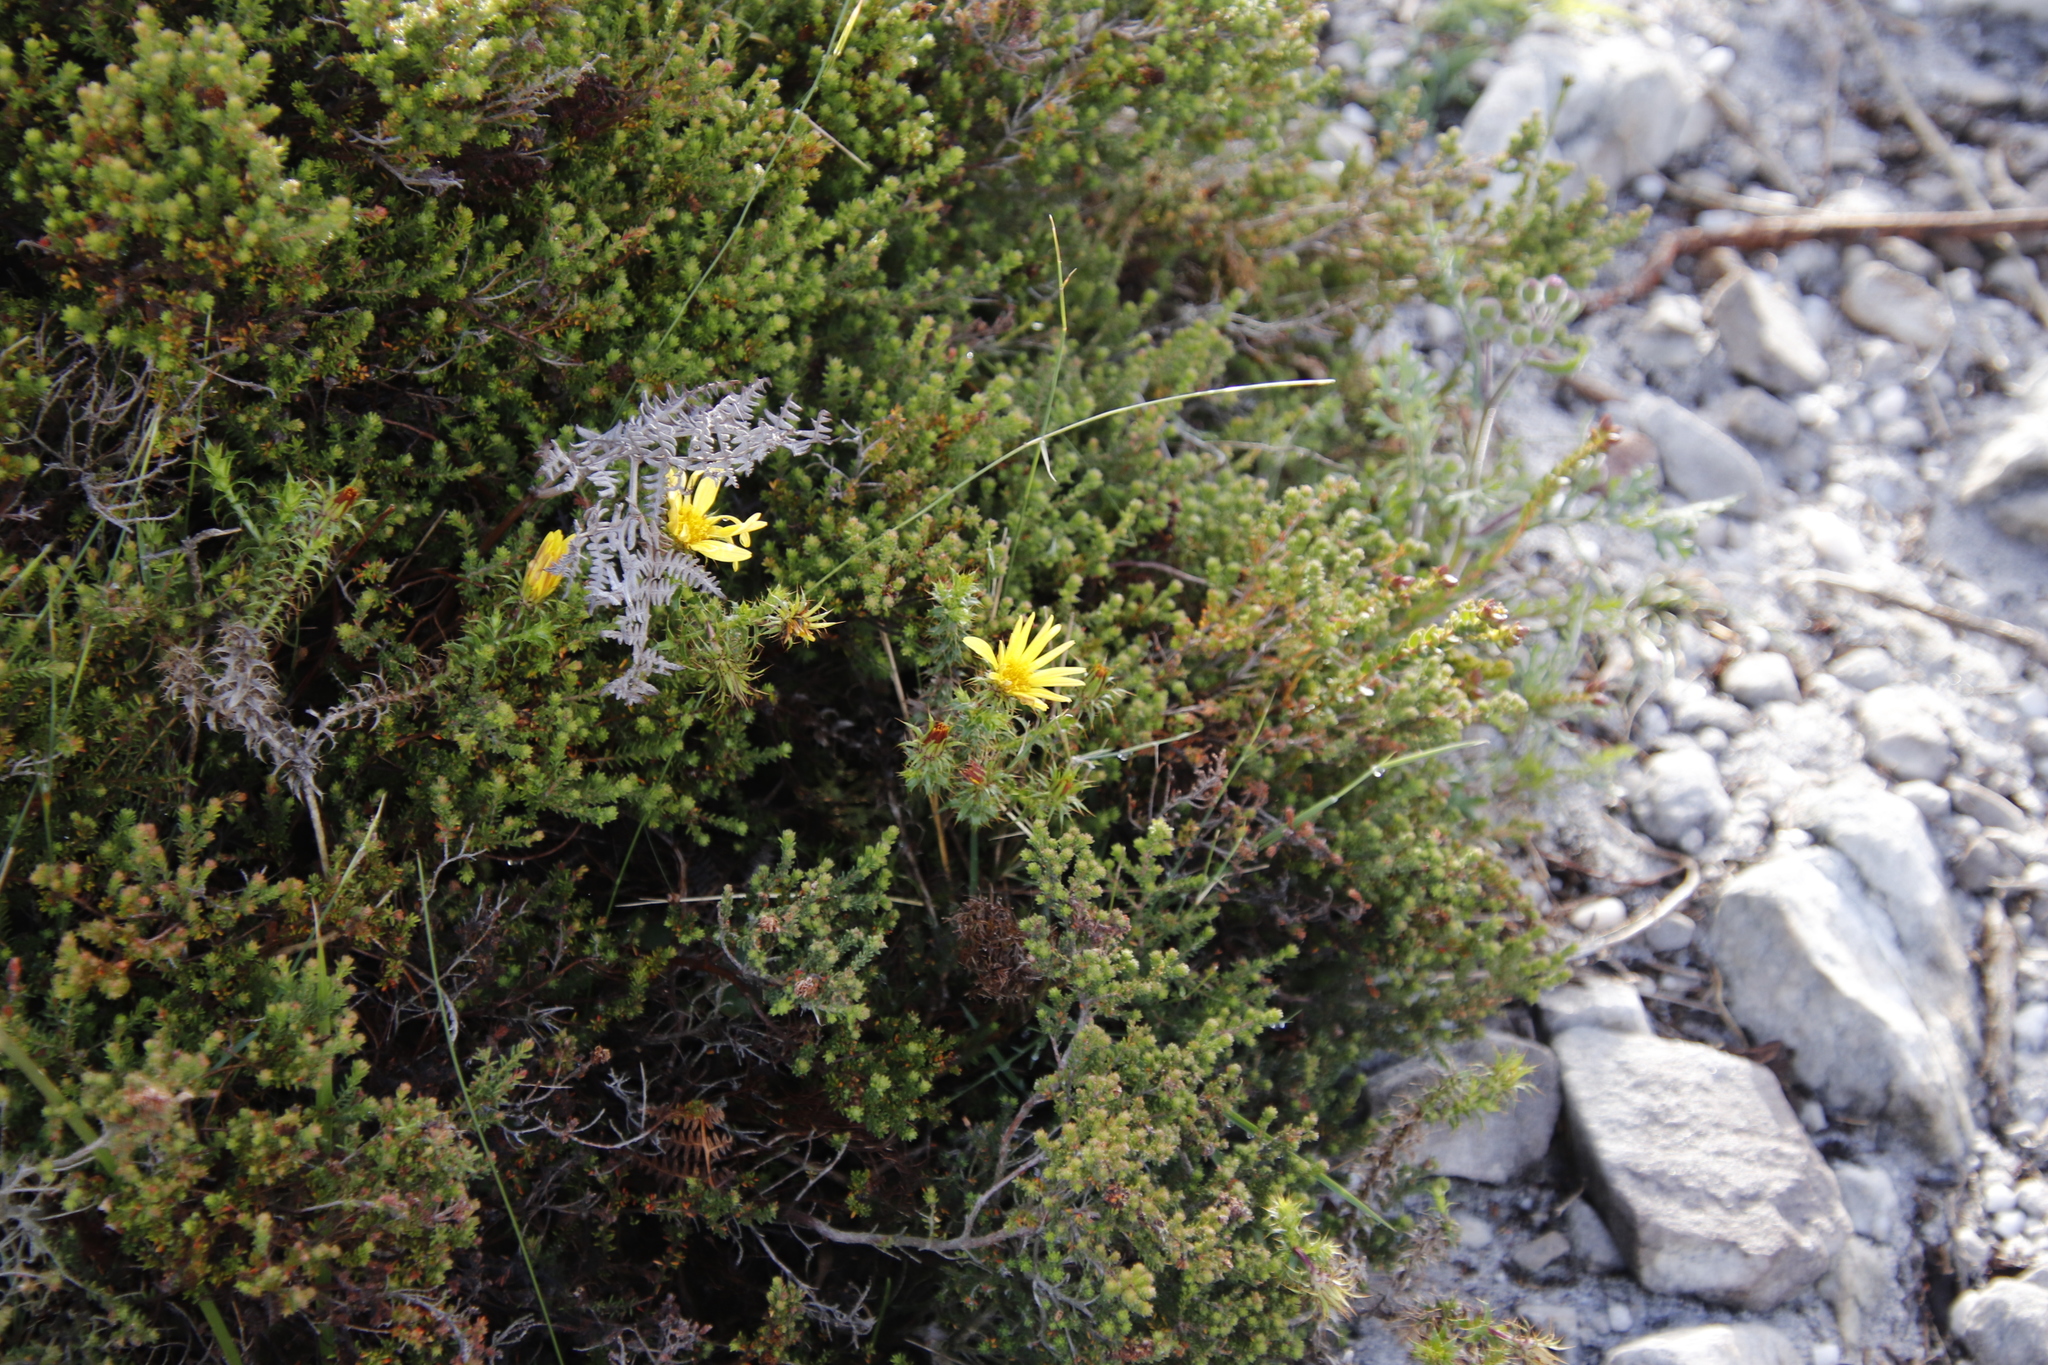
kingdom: Plantae
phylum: Tracheophyta
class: Magnoliopsida
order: Asterales
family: Asteraceae
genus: Cullumia
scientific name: Cullumia setosa
